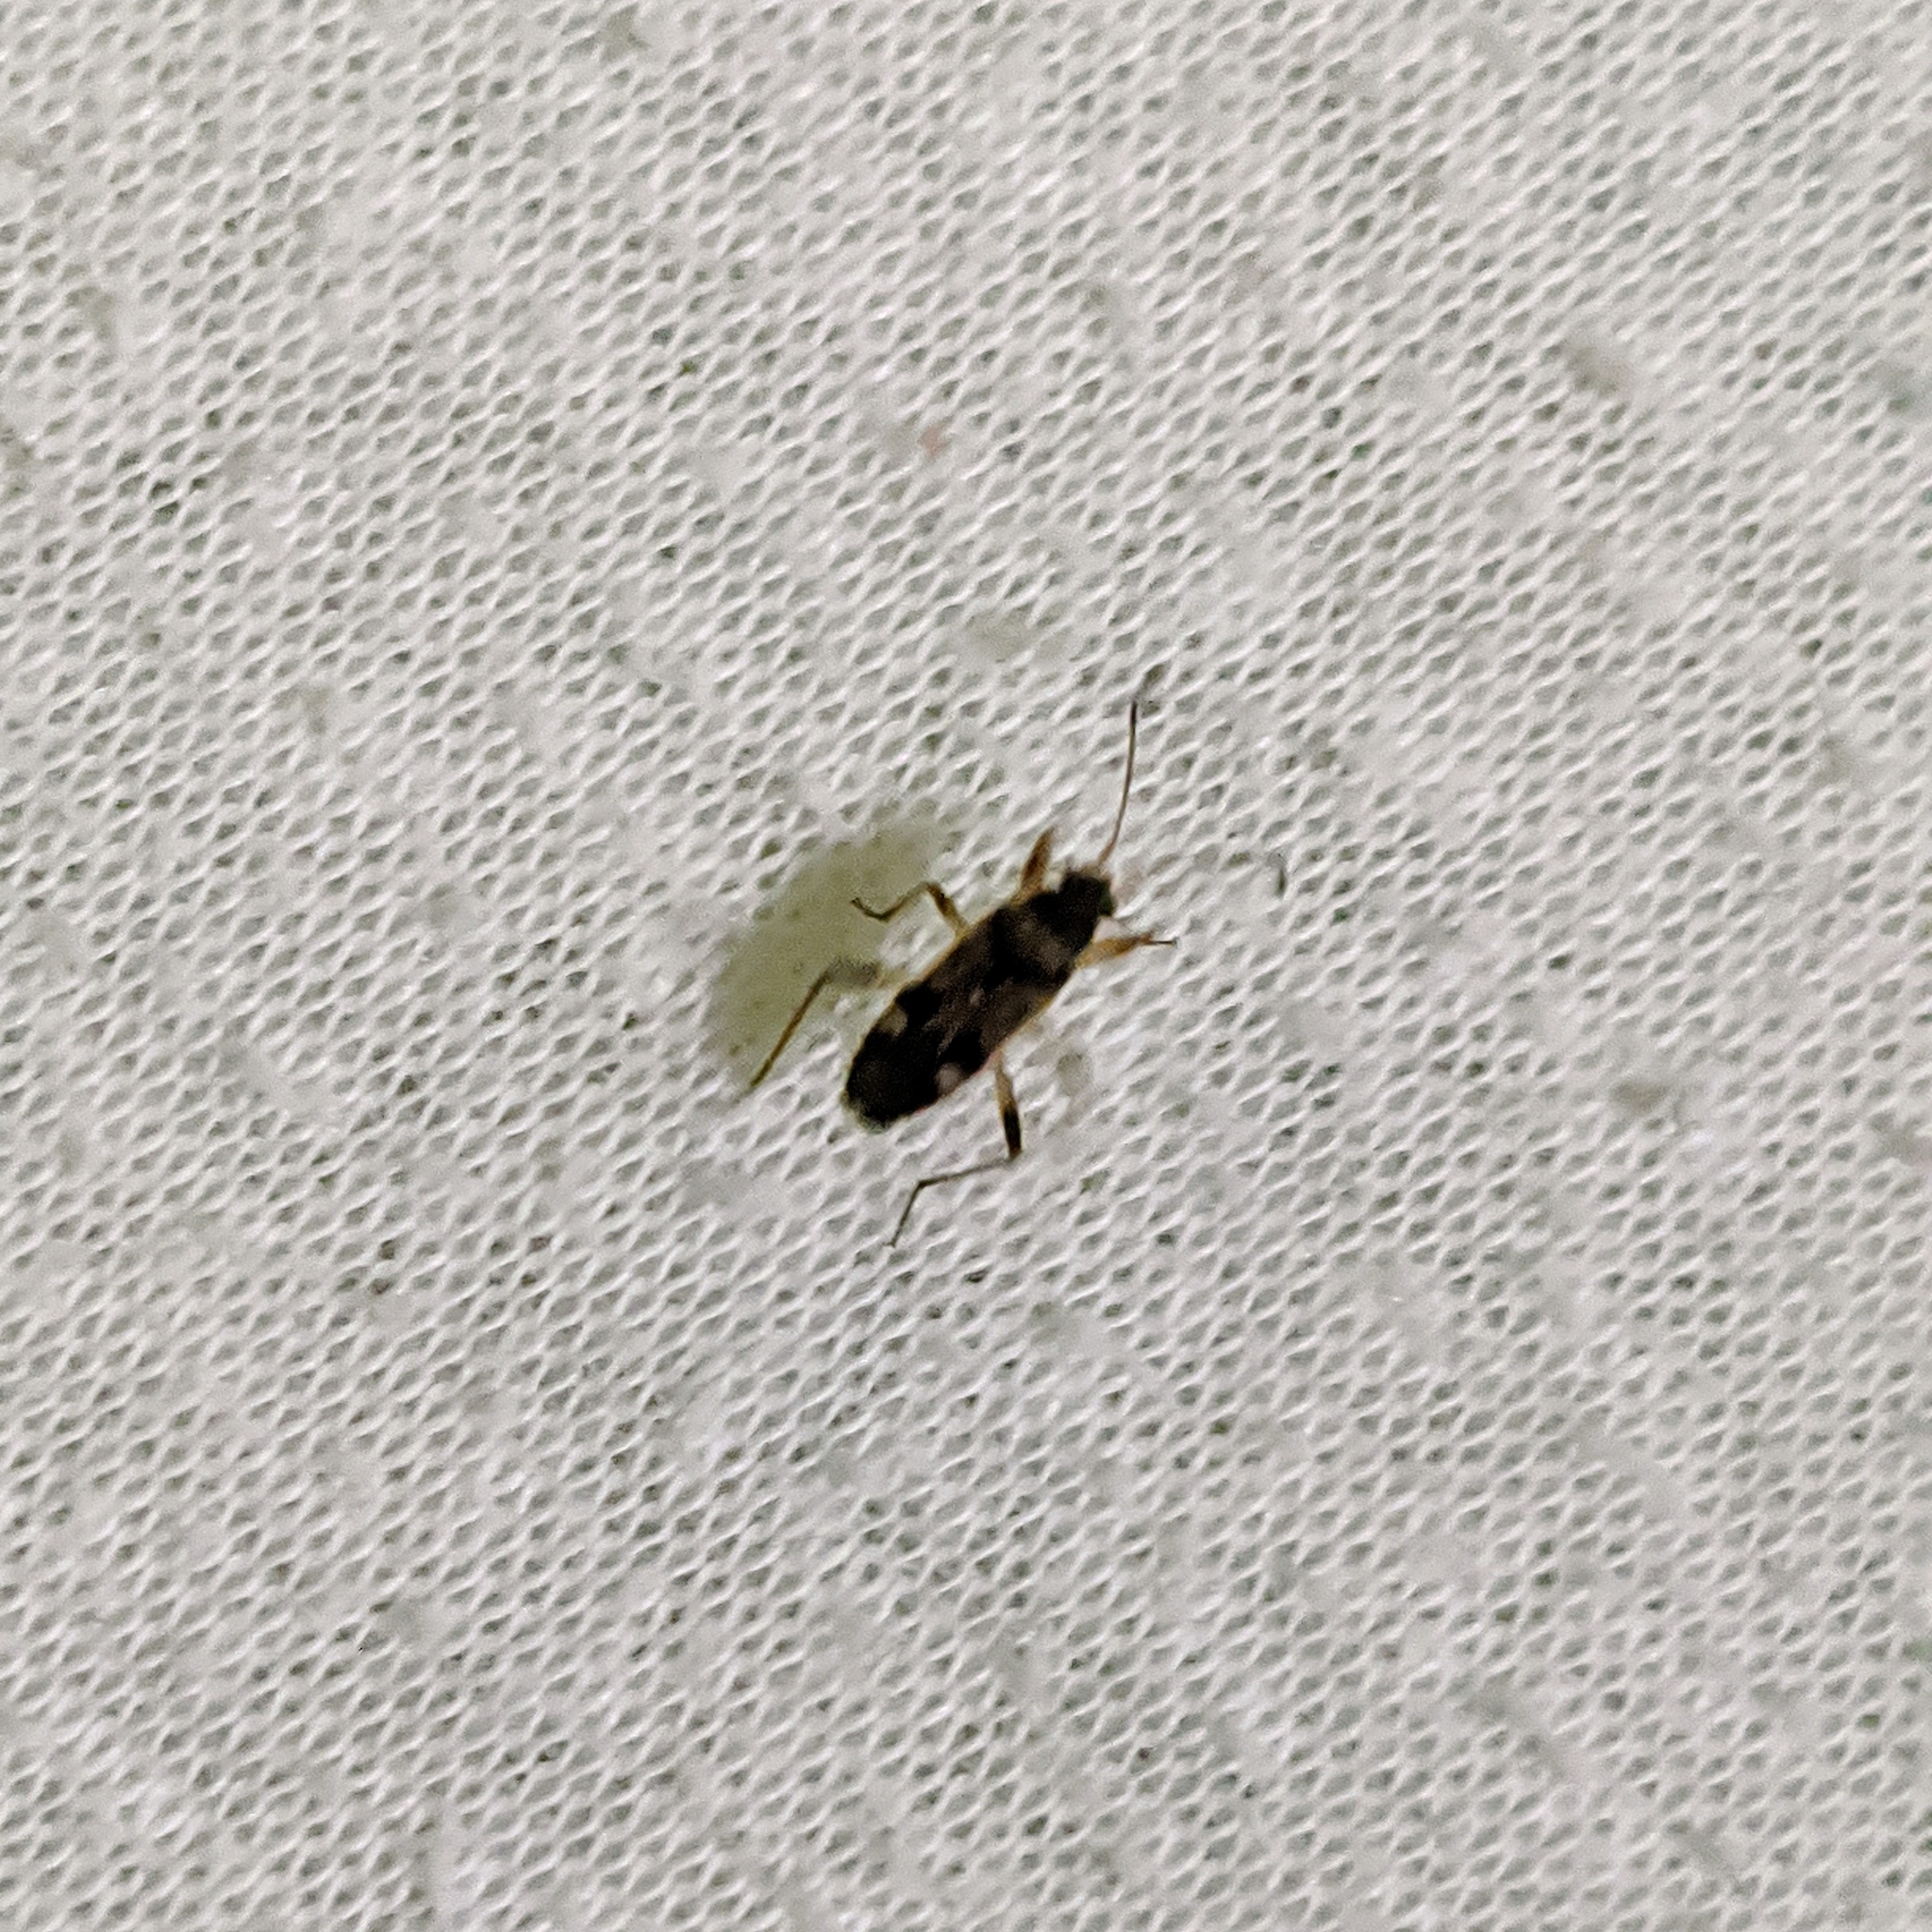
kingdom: Animalia
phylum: Arthropoda
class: Insecta
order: Hemiptera
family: Rhyparochromidae
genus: Beosus
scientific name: Beosus maritimus
